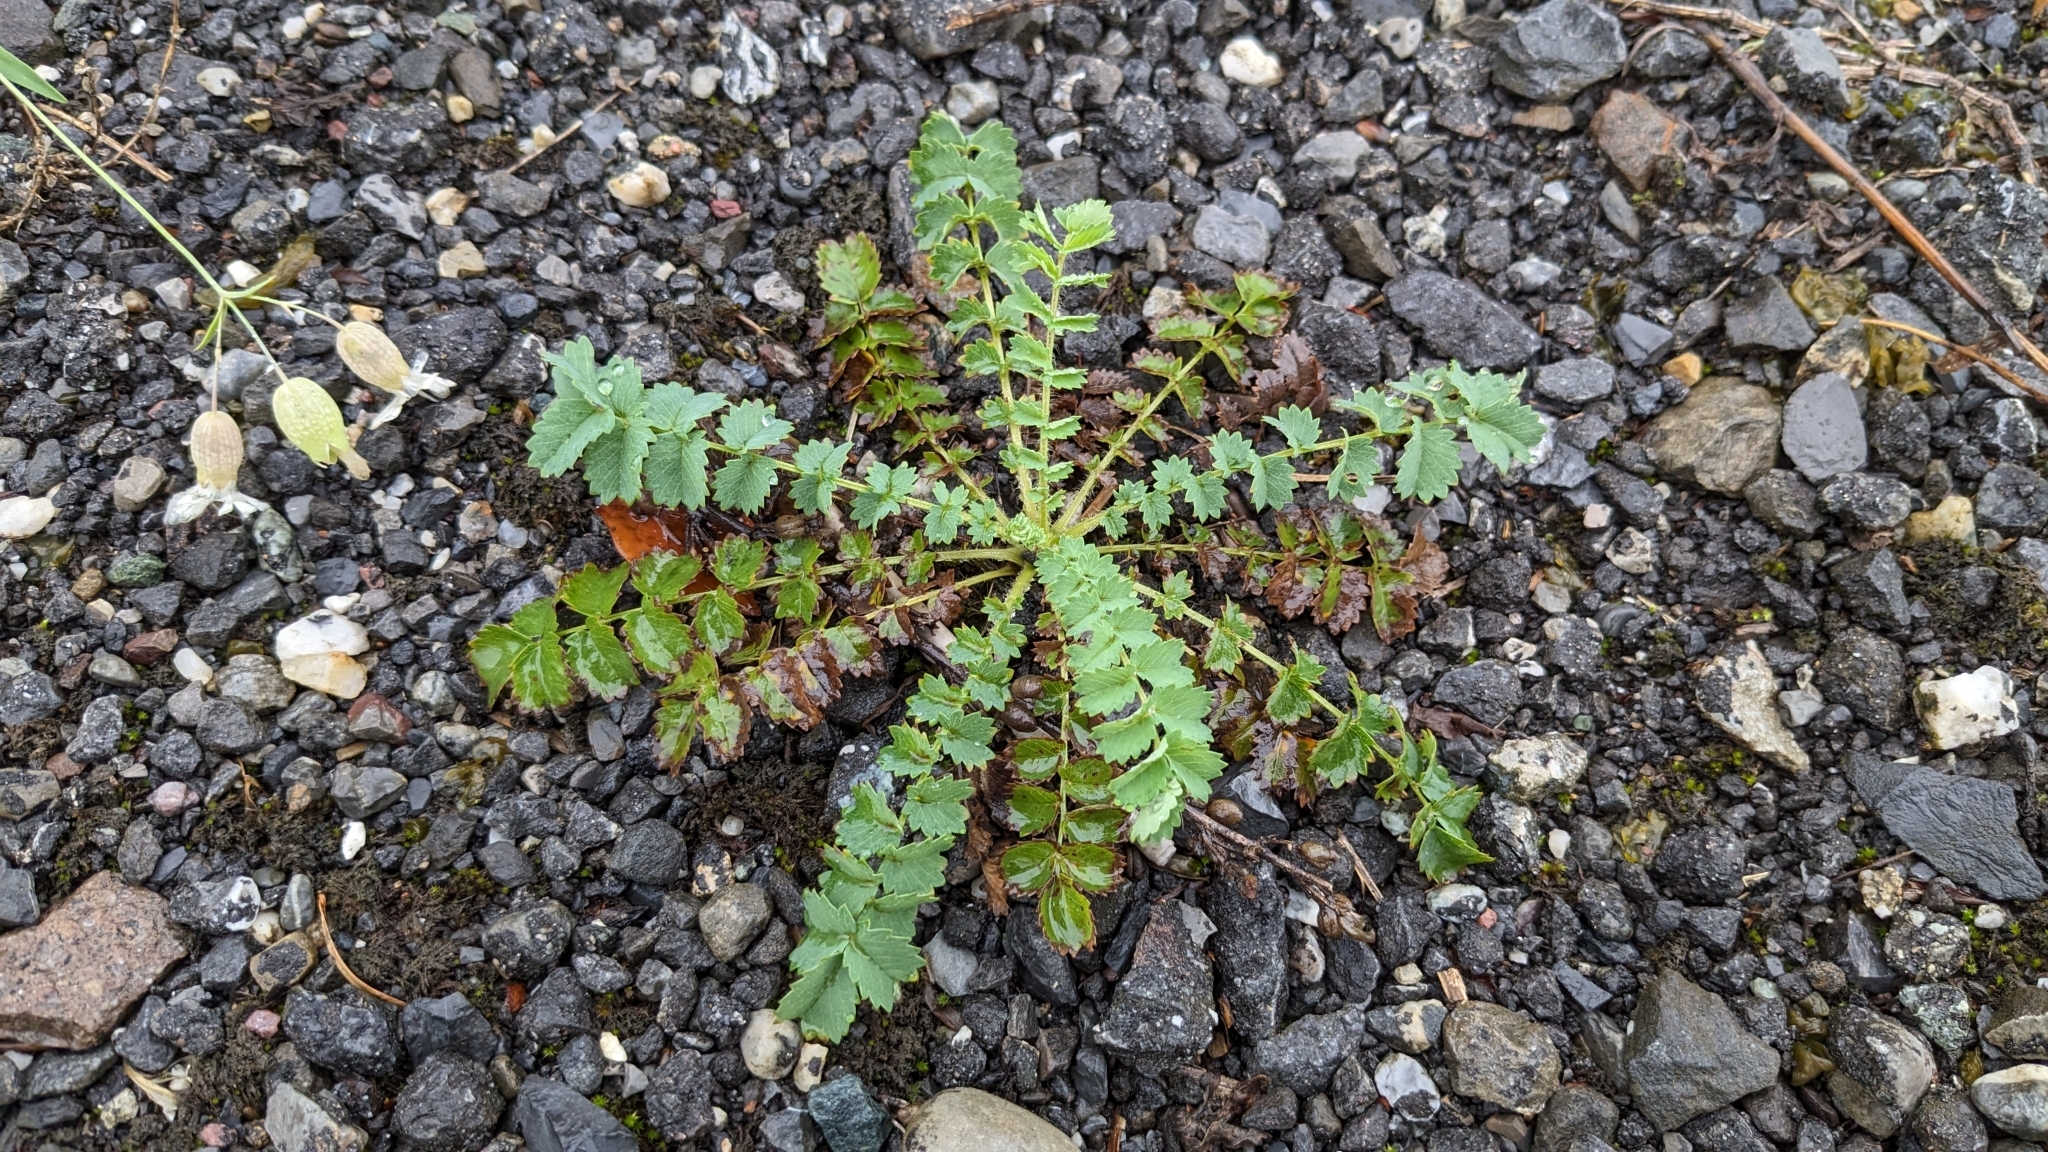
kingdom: Plantae
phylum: Tracheophyta
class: Magnoliopsida
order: Rosales
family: Rosaceae
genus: Poterium
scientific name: Poterium sanguisorba
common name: Salad burnet
